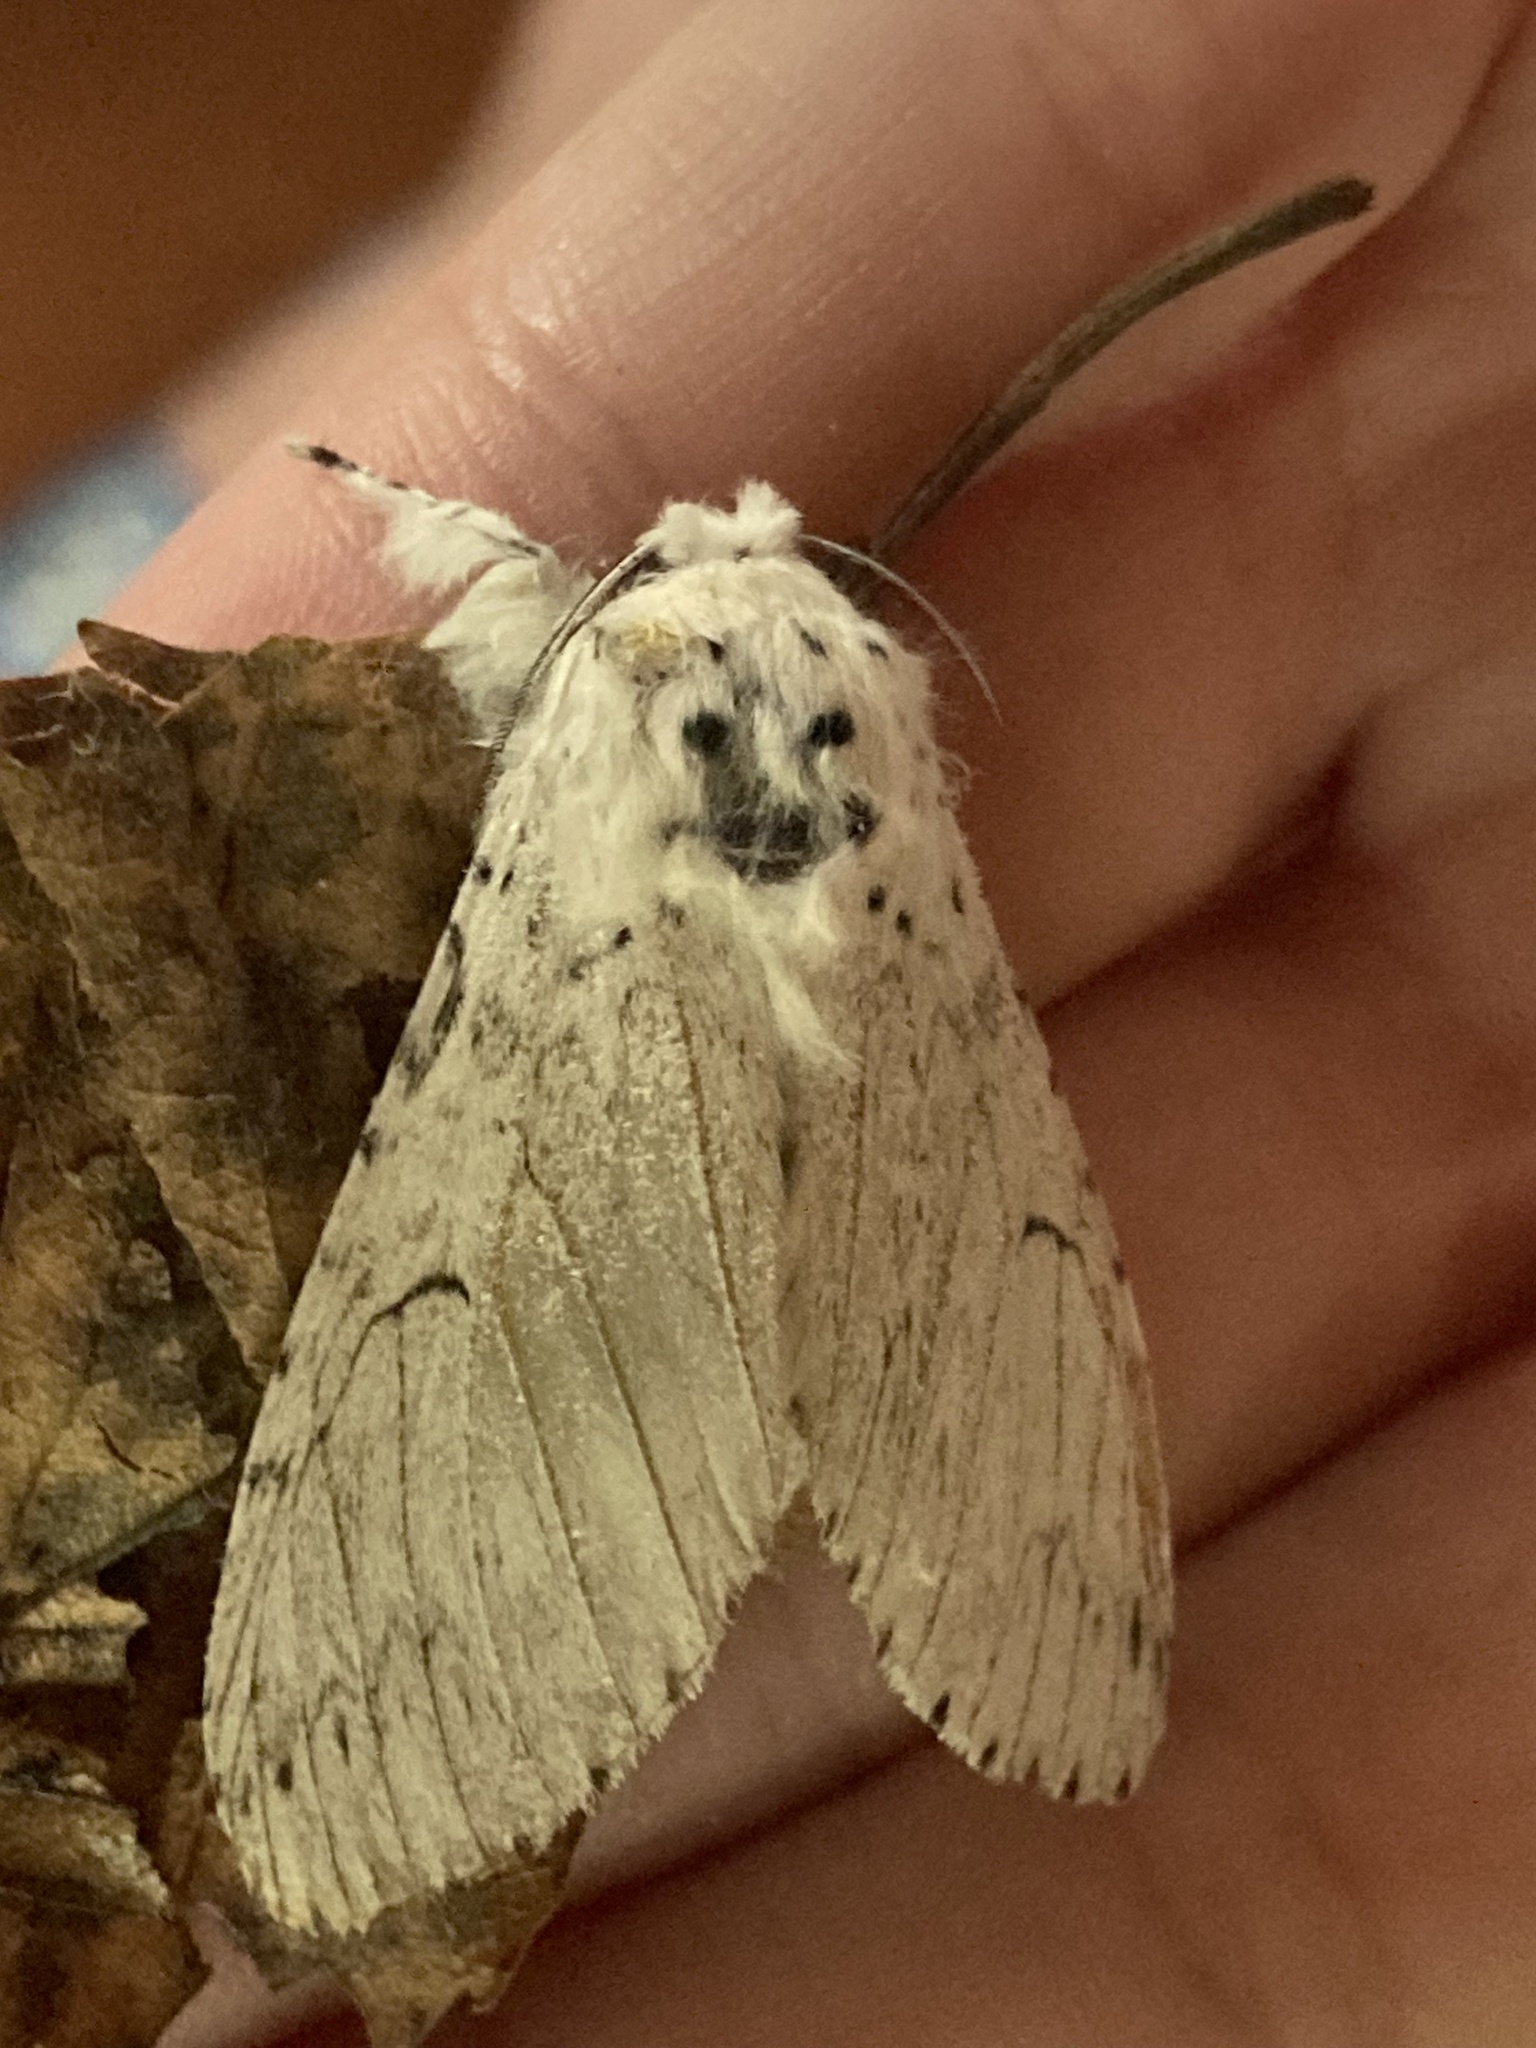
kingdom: Animalia
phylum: Arthropoda
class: Insecta
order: Lepidoptera
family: Notodontidae
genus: Cerura
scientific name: Cerura erminea
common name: Lesser puss moth
